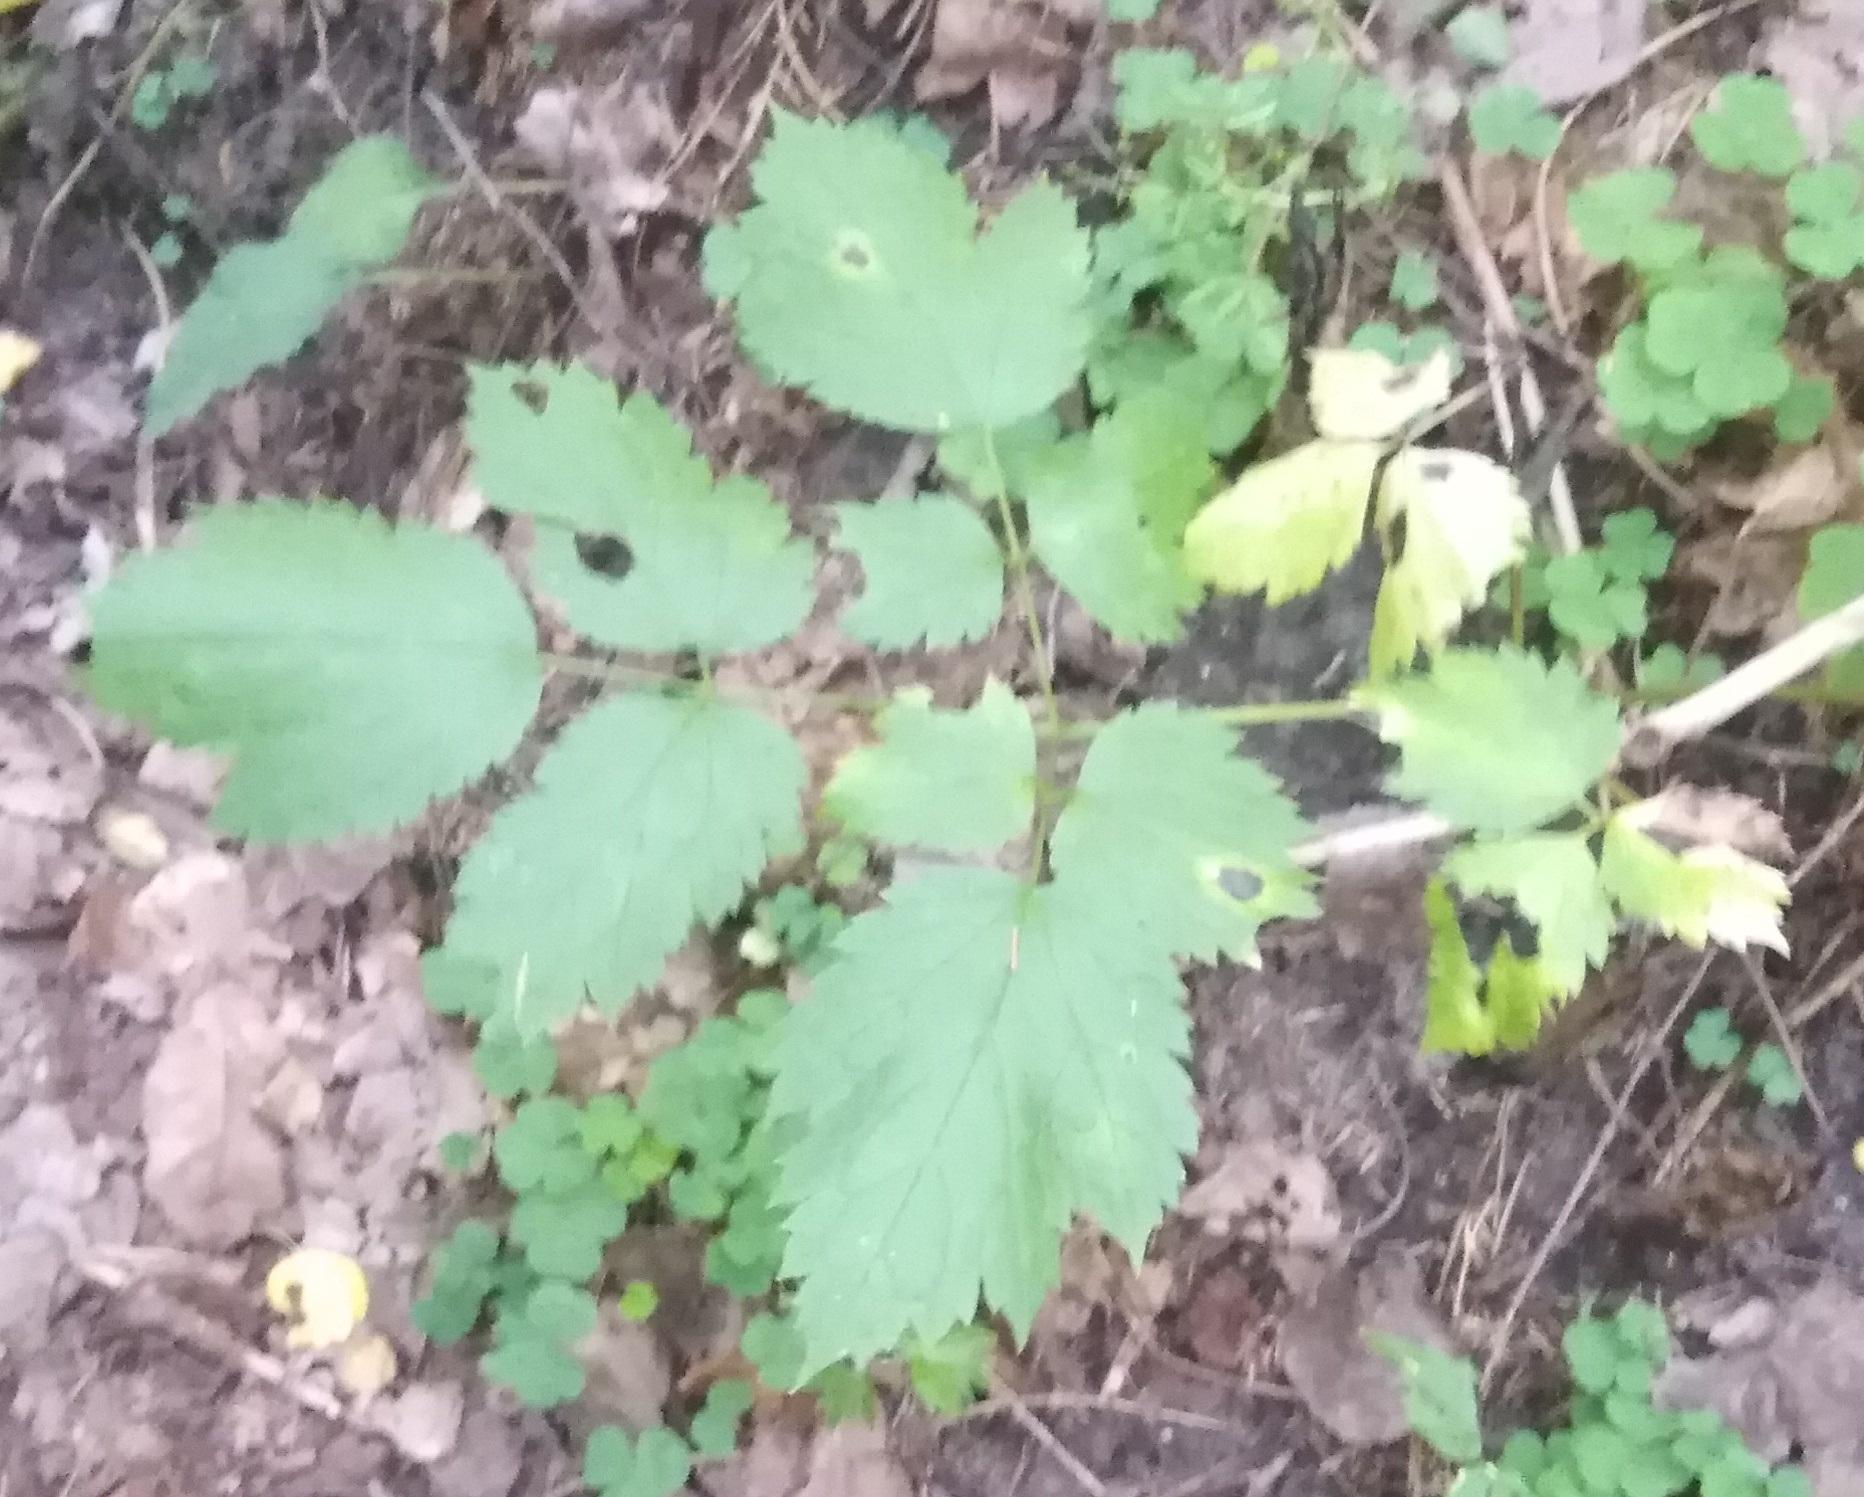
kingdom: Plantae
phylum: Tracheophyta
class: Magnoliopsida
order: Ranunculales
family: Ranunculaceae
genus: Actaea
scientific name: Actaea spicata
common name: Baneberry
